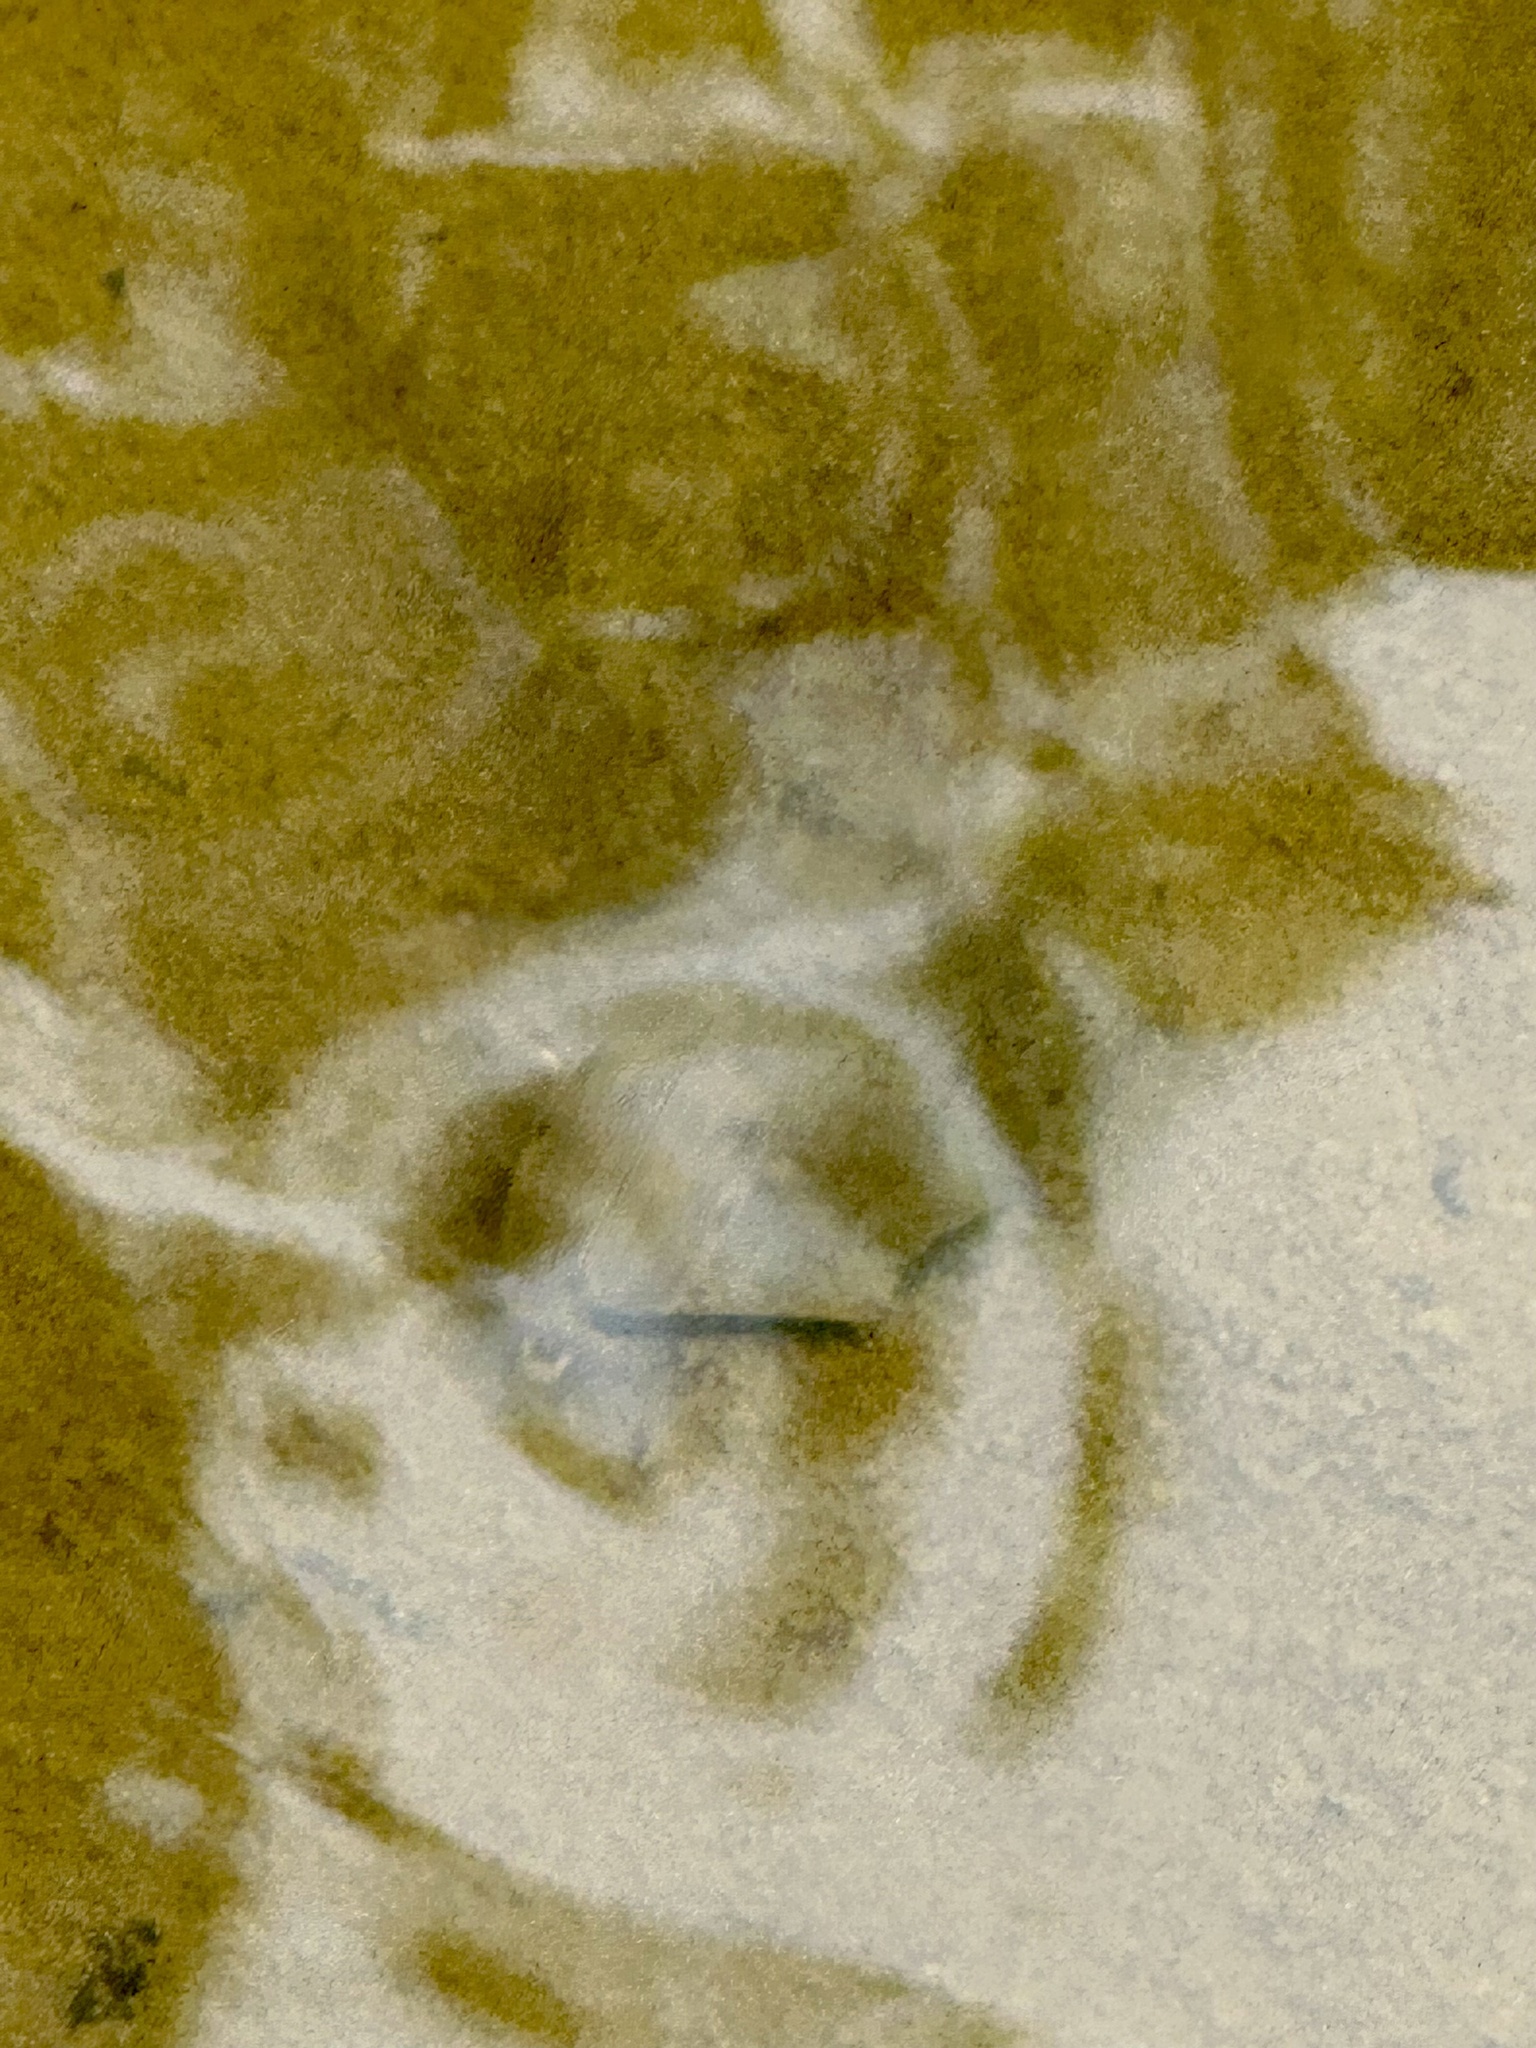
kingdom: Animalia
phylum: Arthropoda
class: Insecta
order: Coleoptera
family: Dytiscidae
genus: Eretes
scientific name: Eretes griseus
